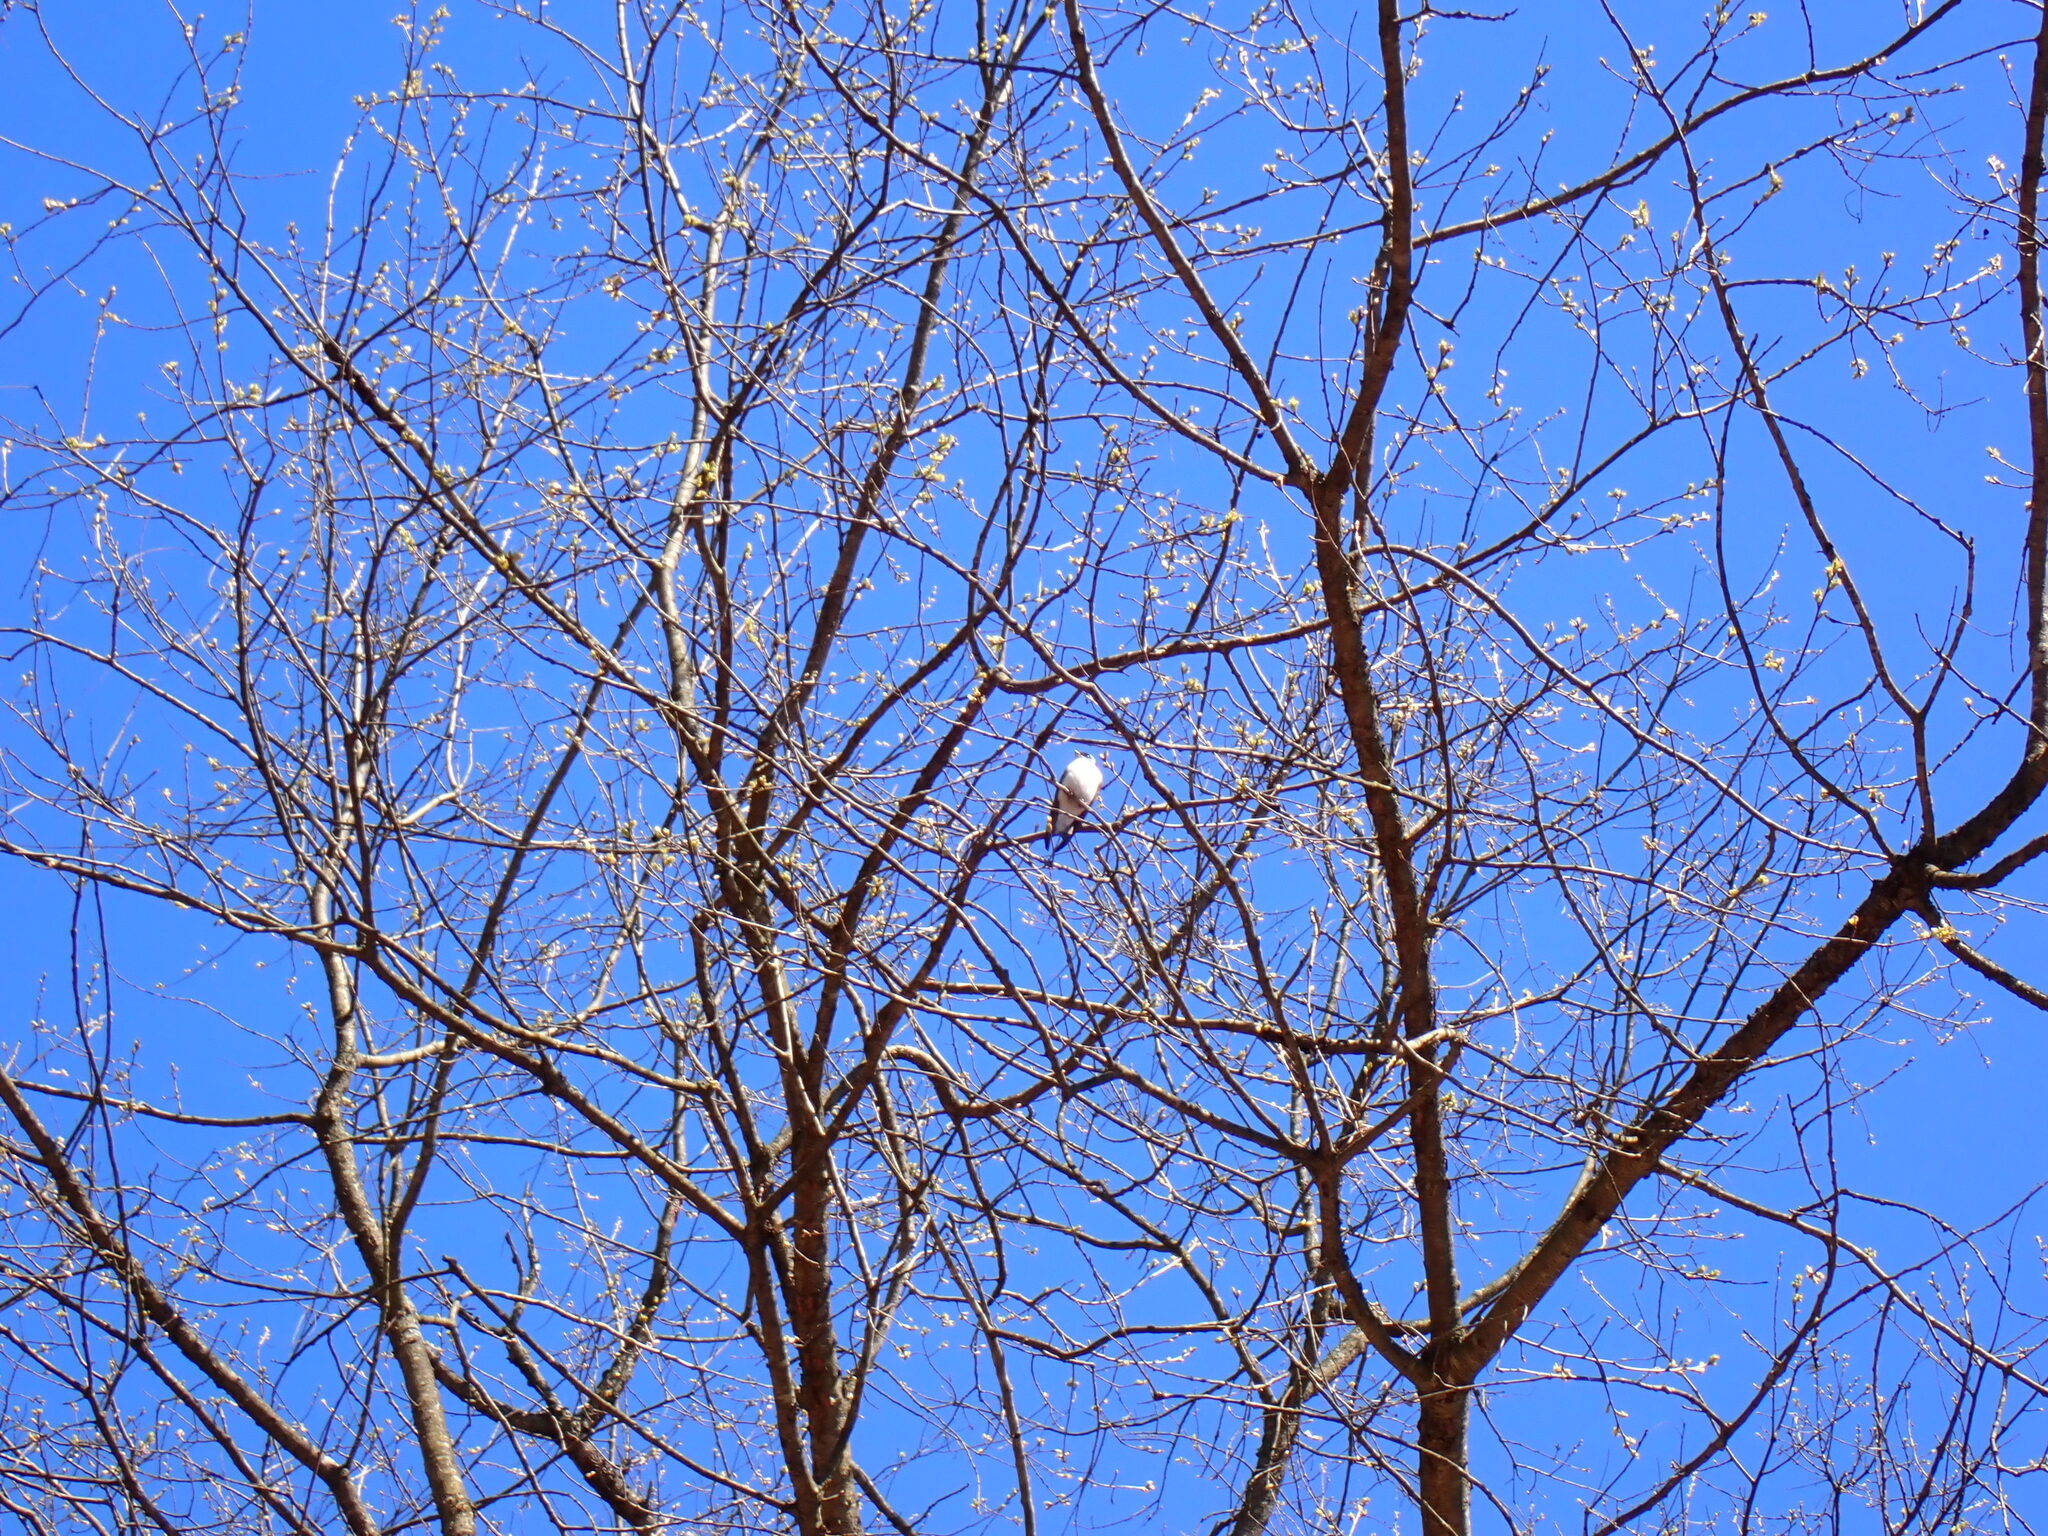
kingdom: Animalia
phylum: Chordata
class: Aves
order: Passeriformes
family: Hirundinidae
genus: Tachycineta
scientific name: Tachycineta bicolor
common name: Tree swallow
